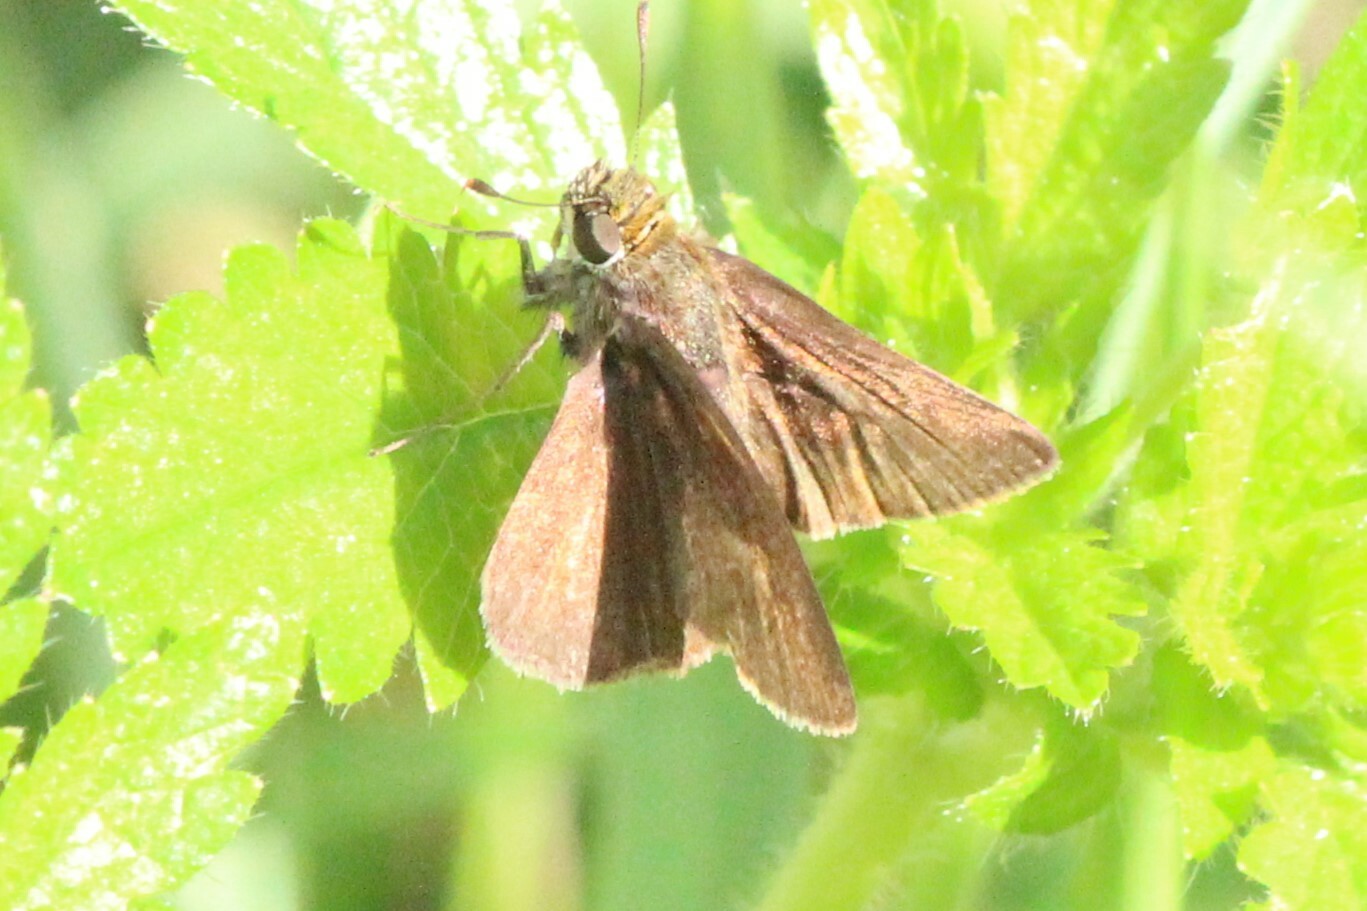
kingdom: Animalia
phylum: Arthropoda
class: Insecta
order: Lepidoptera
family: Hesperiidae
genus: Euphyes
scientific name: Euphyes vestris
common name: Dun skipper
